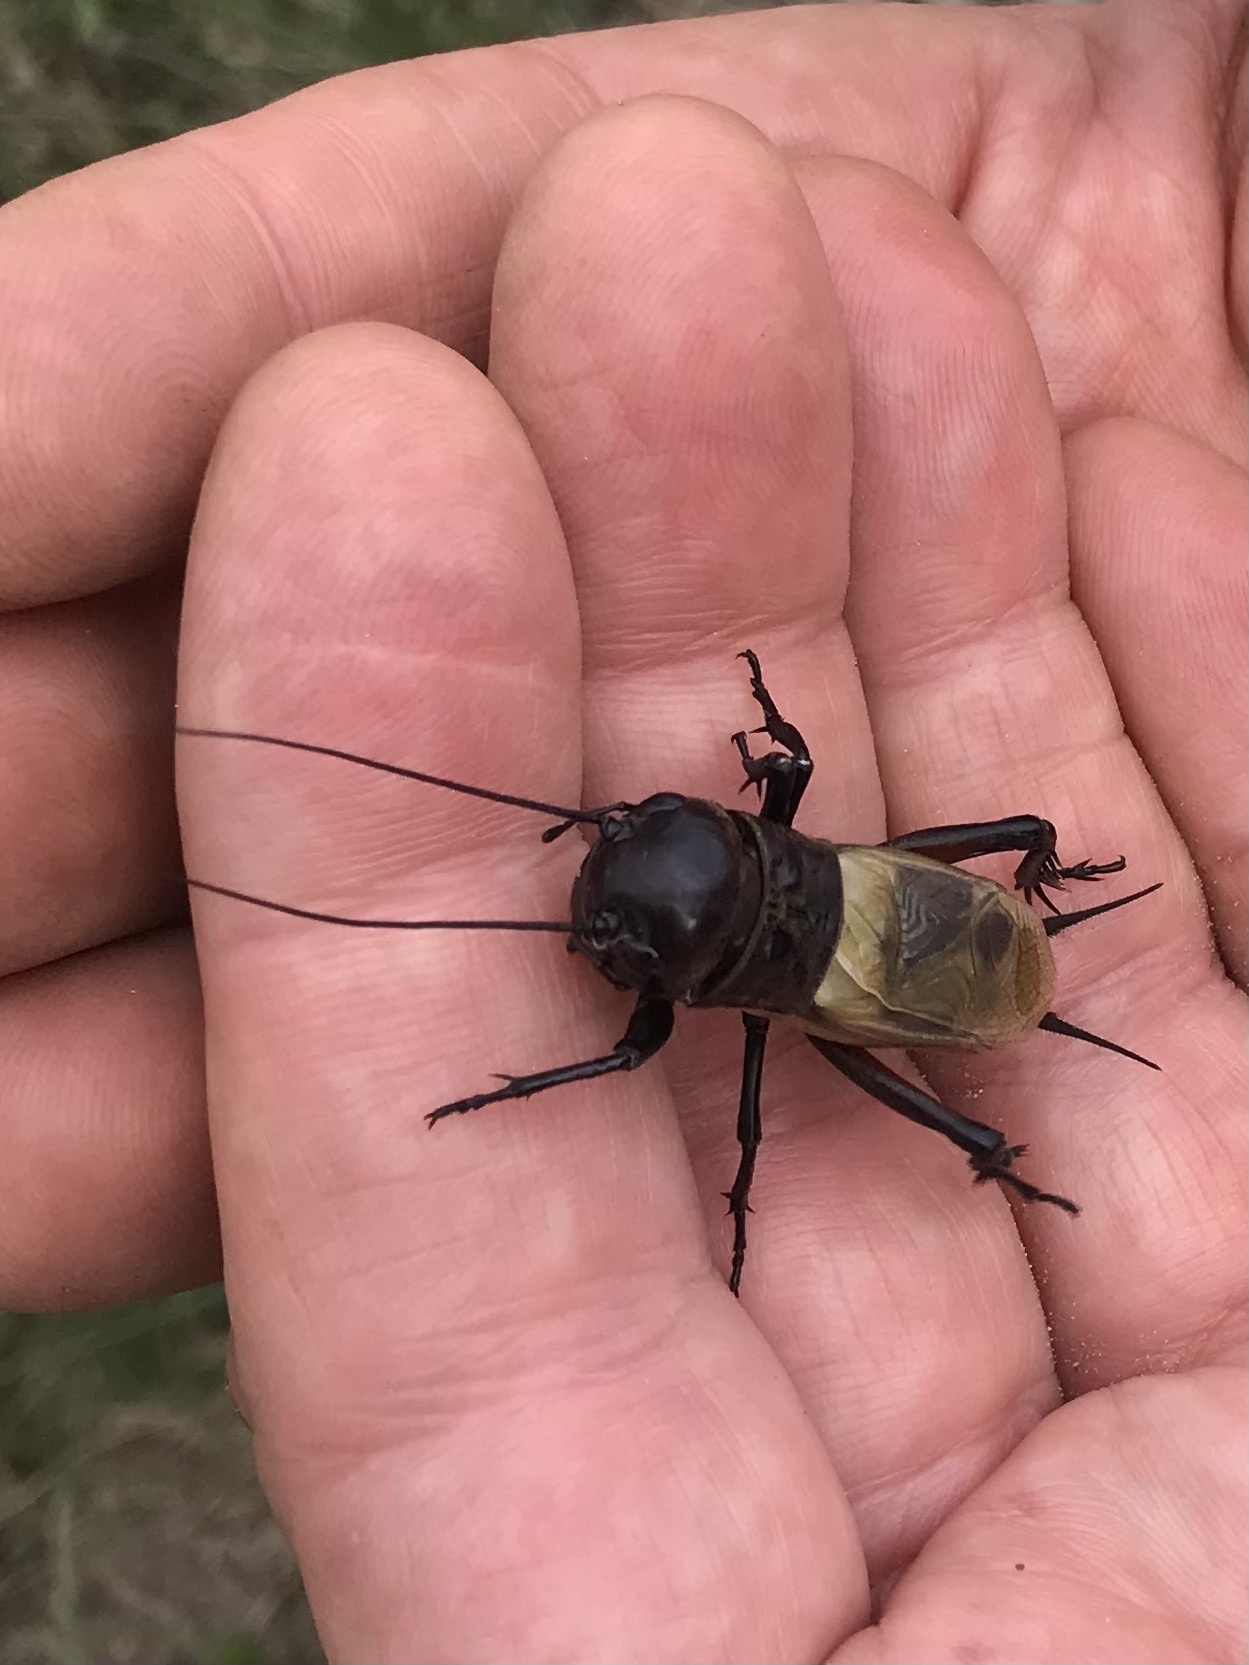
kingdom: Animalia
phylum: Arthropoda
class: Insecta
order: Orthoptera
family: Gryllidae
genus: Gryllus
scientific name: Gryllus campestris
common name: Field cricket
